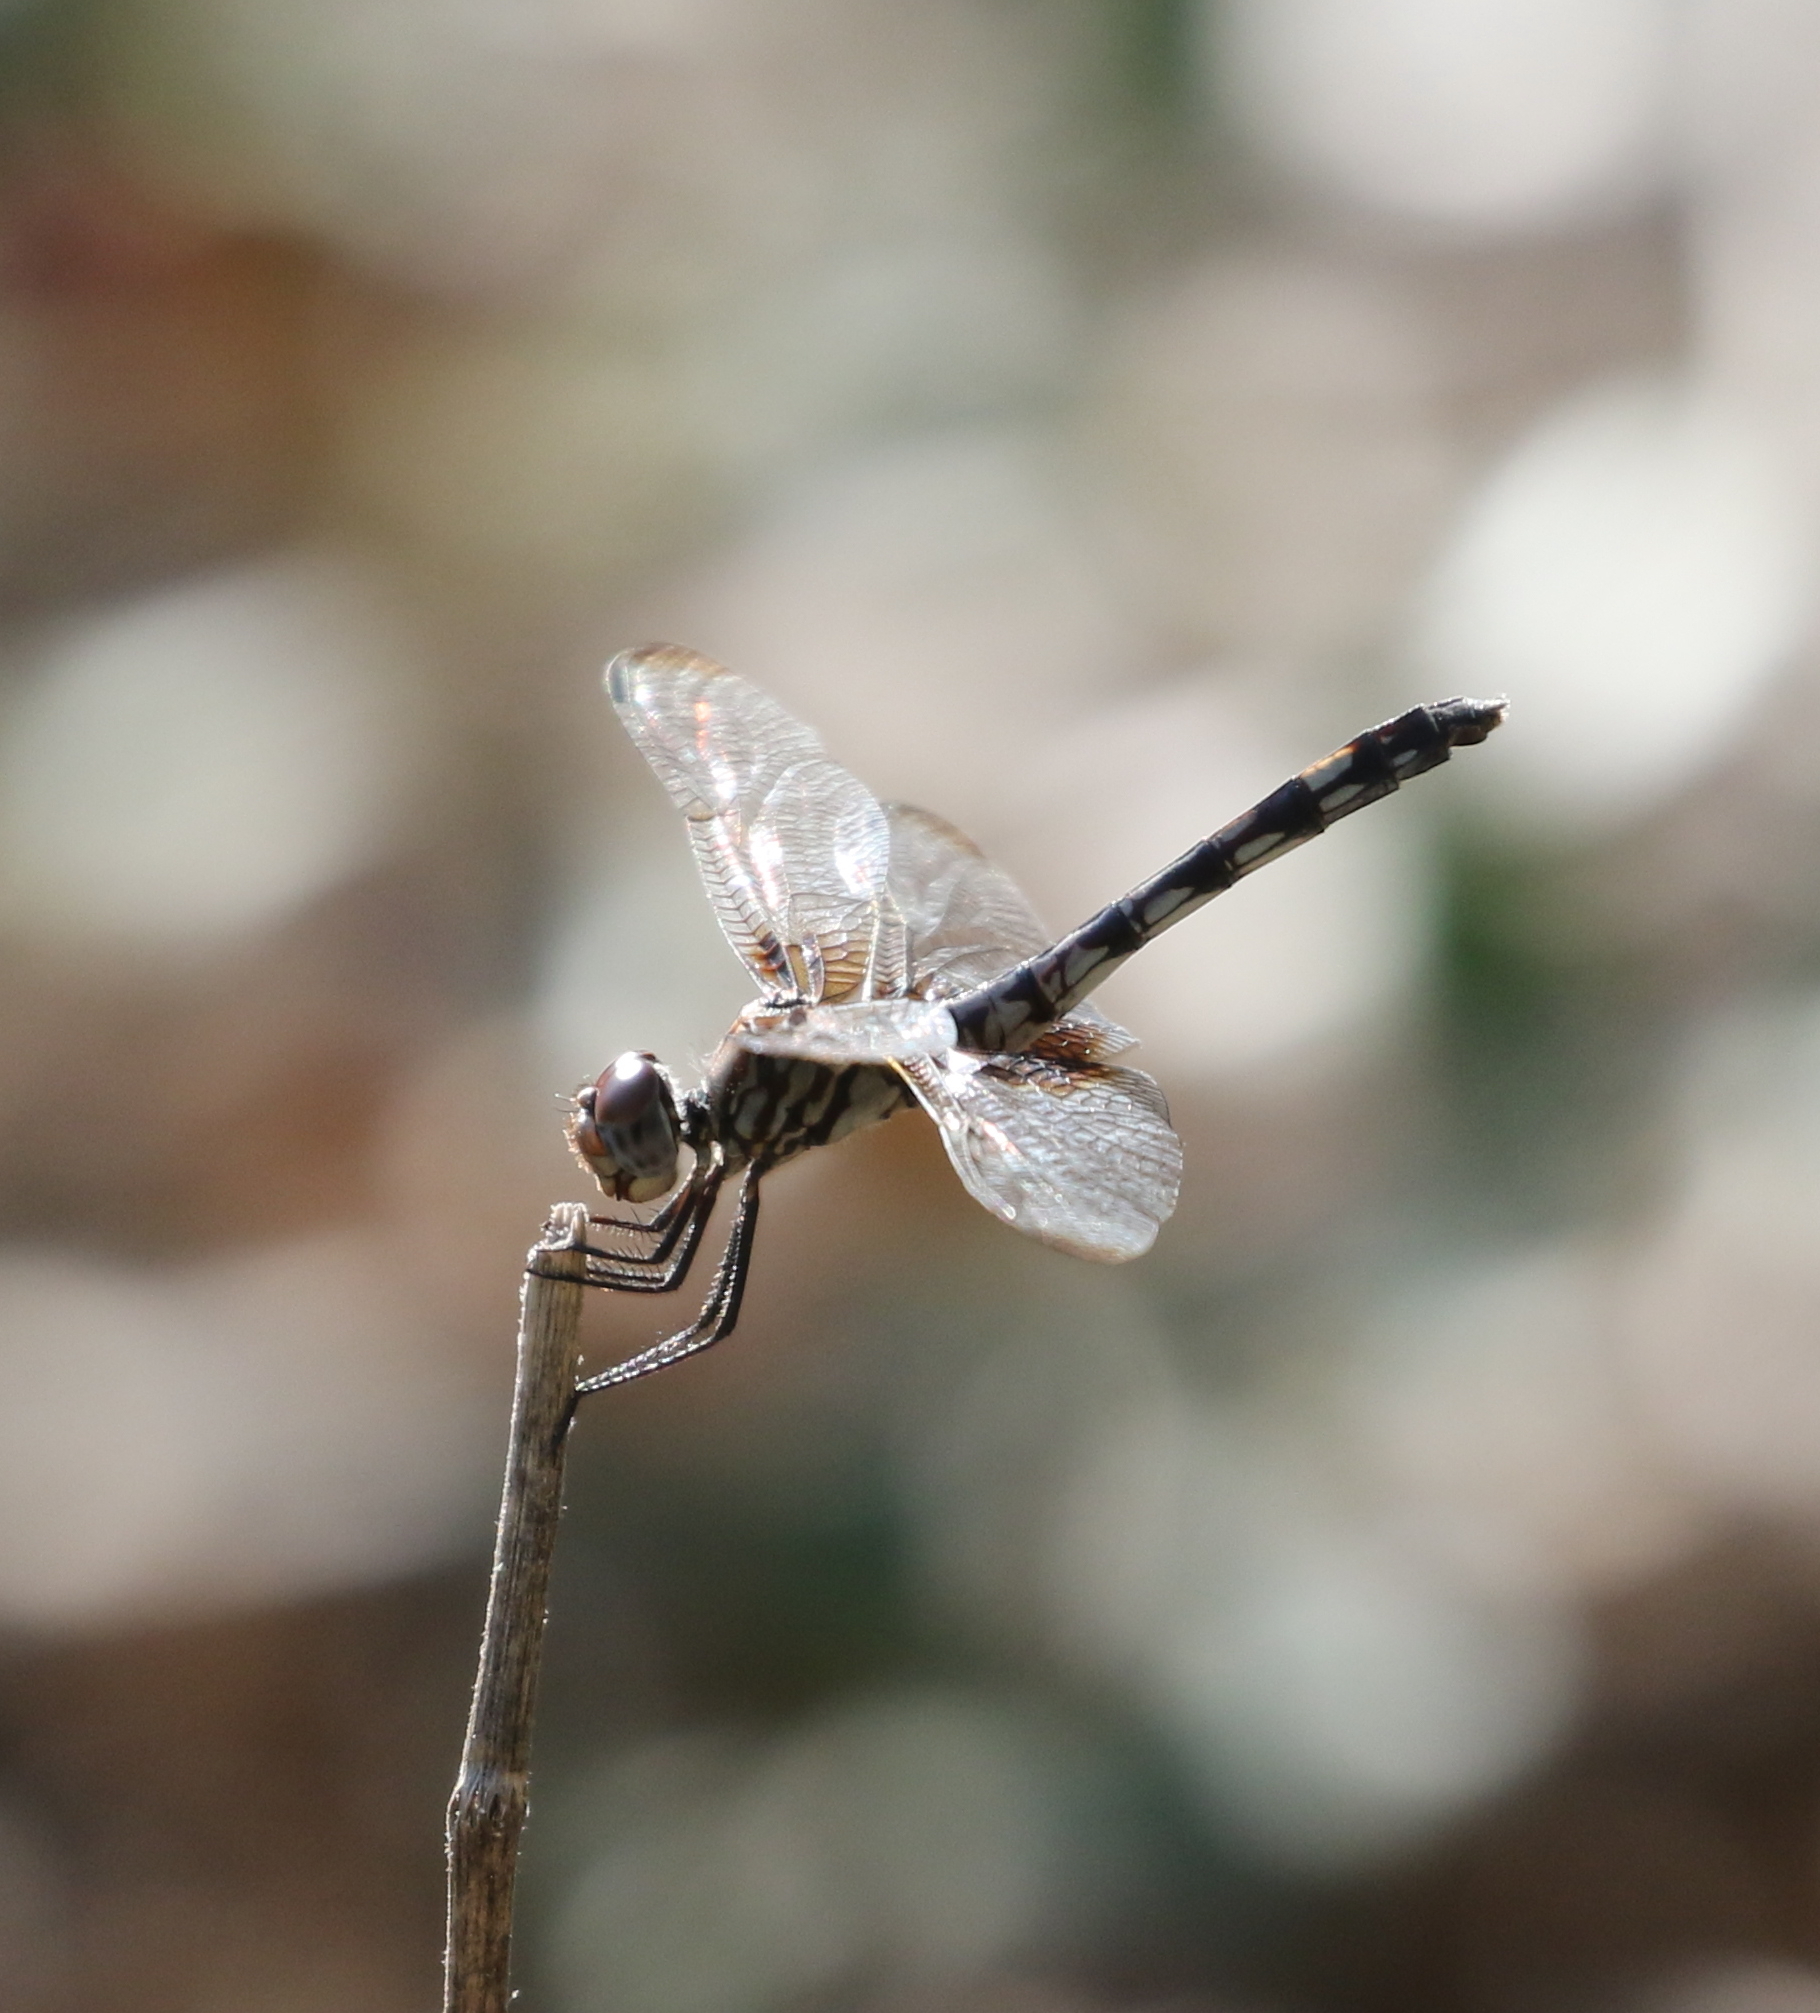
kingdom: Animalia
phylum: Arthropoda
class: Insecta
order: Odonata
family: Libellulidae
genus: Dythemis
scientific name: Dythemis fugax
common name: Checkered setwing
